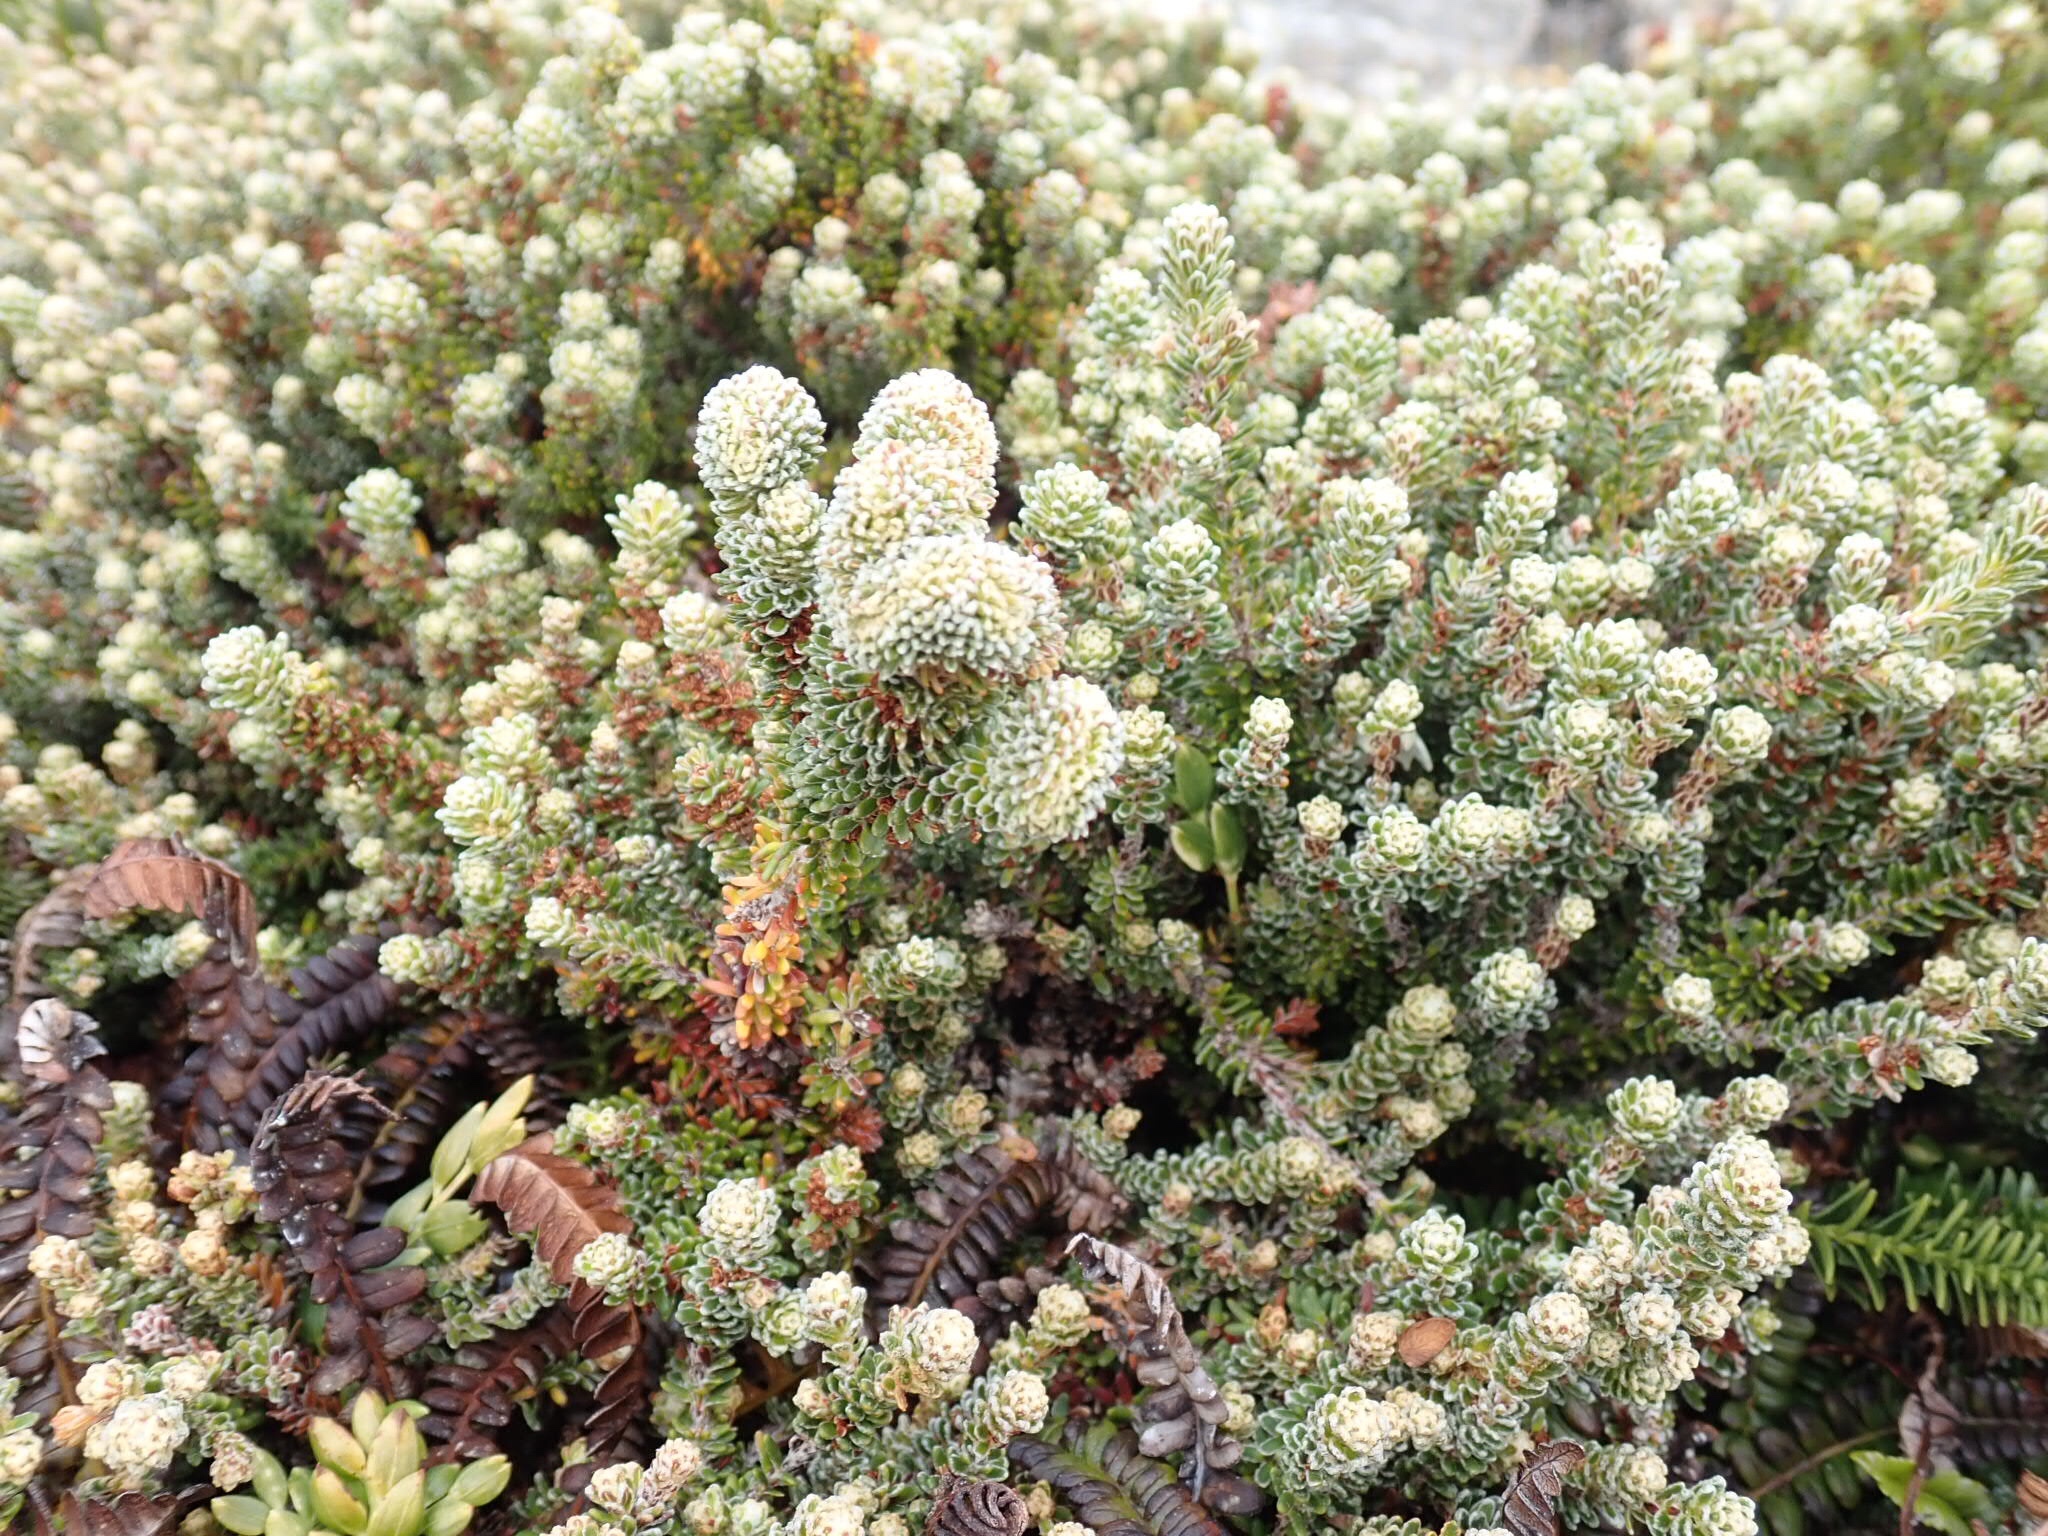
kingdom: Plantae
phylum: Tracheophyta
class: Magnoliopsida
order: Ericales
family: Ericaceae
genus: Empetrum
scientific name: Empetrum rubrum
